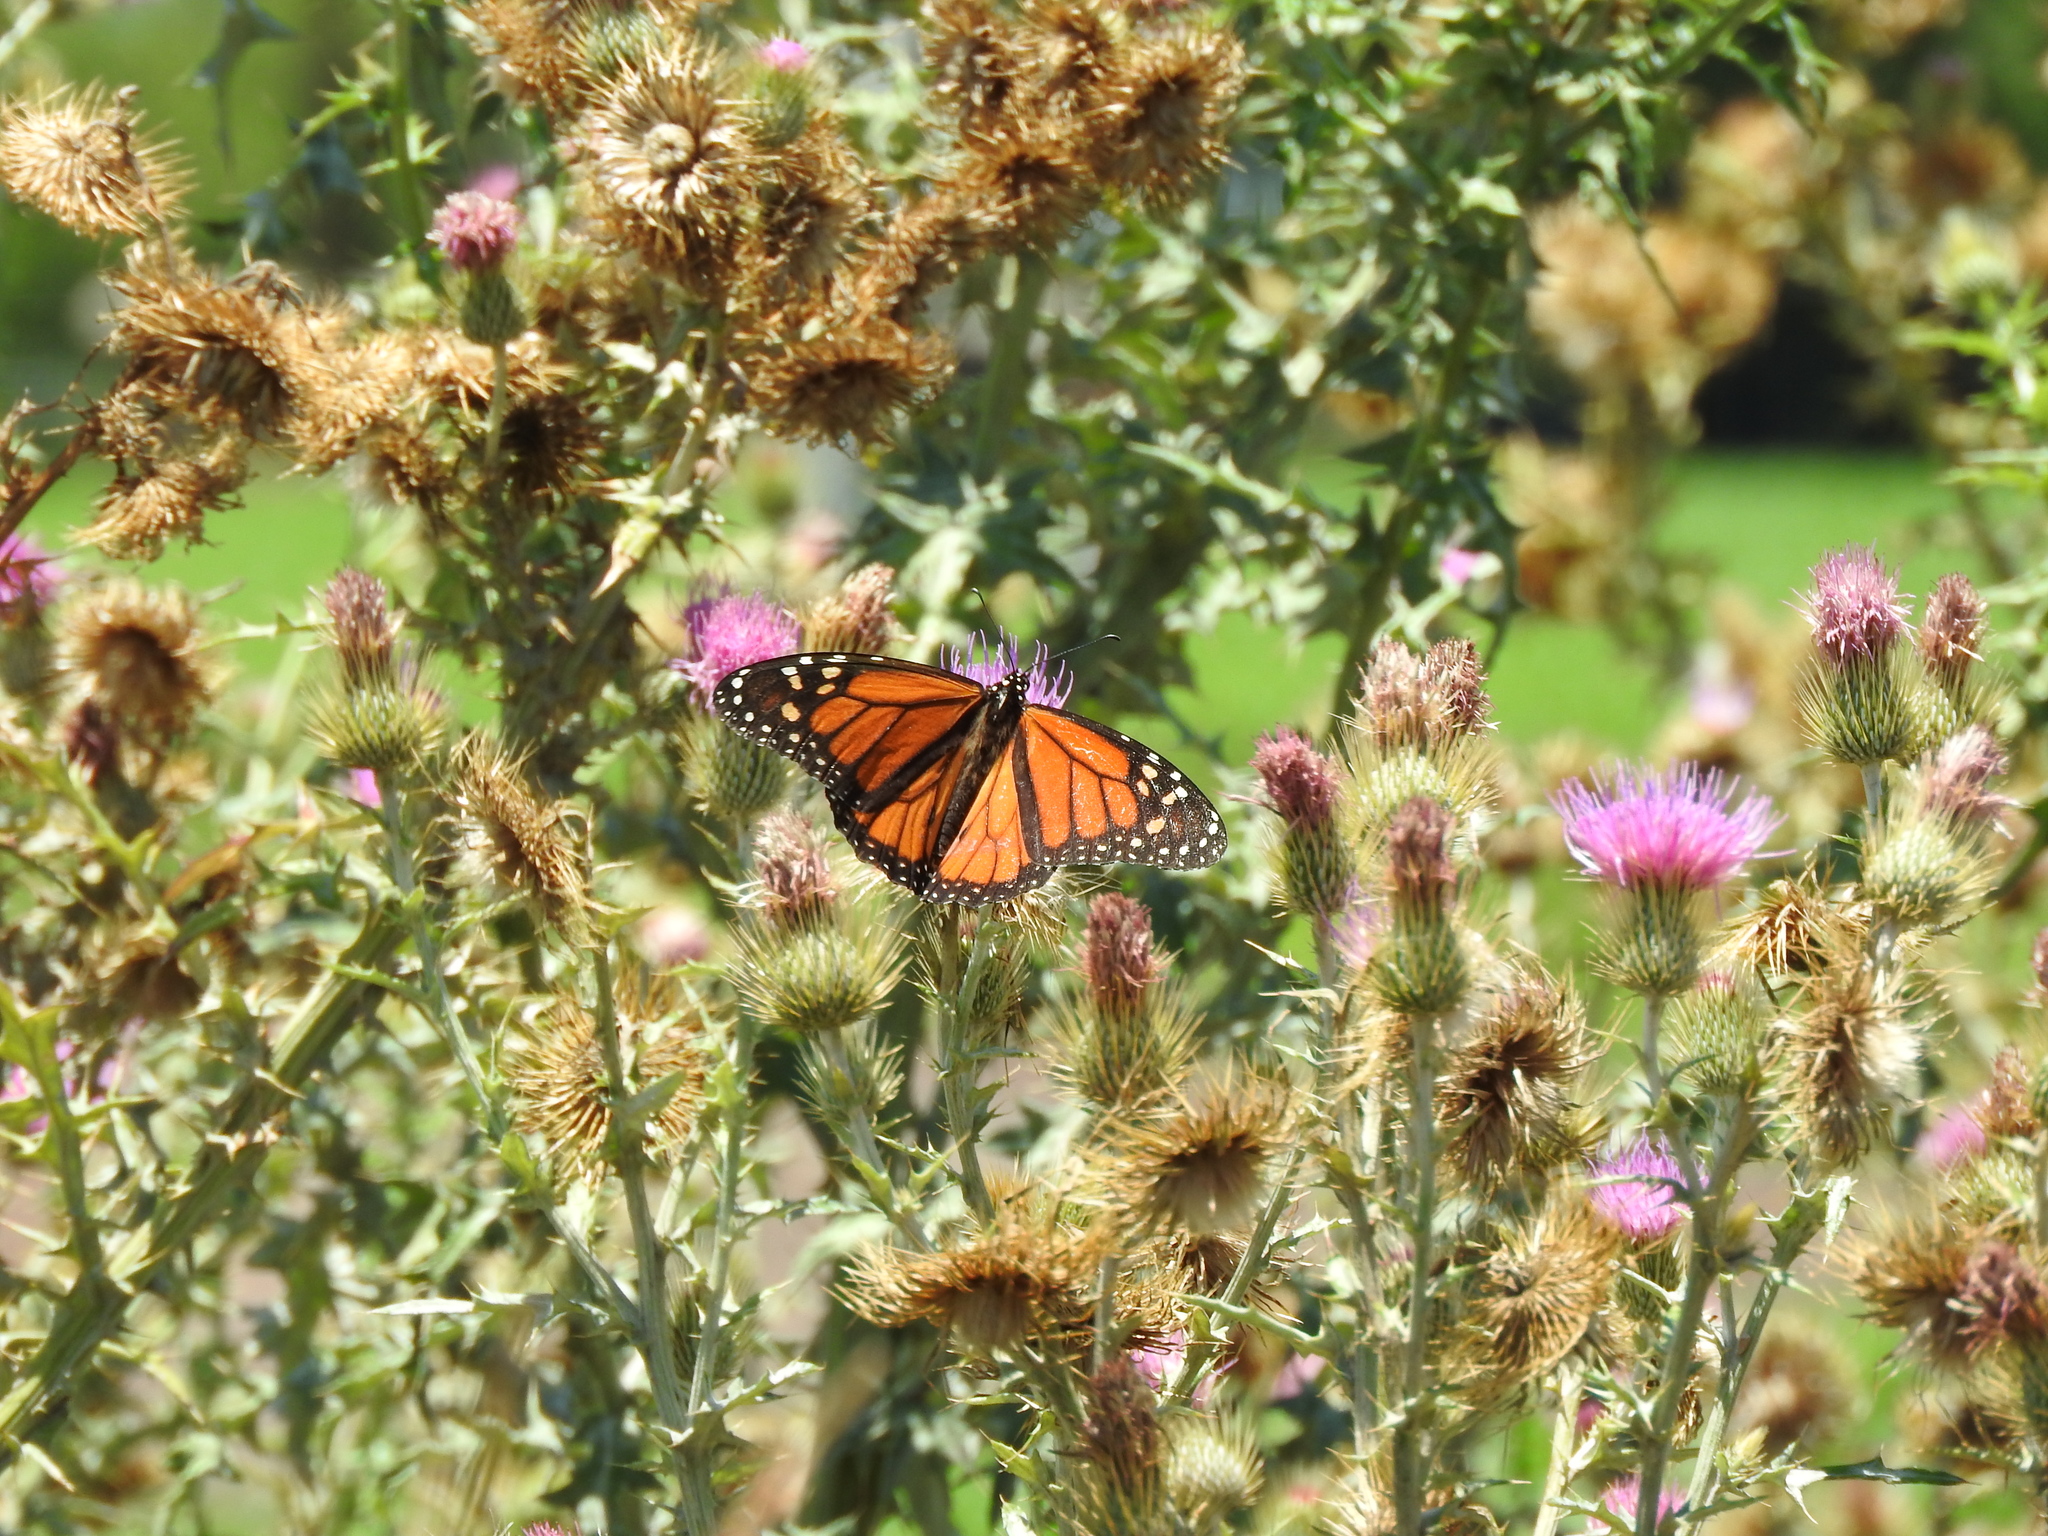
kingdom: Animalia
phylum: Arthropoda
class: Insecta
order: Lepidoptera
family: Nymphalidae
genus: Danaus
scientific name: Danaus plexippus
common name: Monarch
